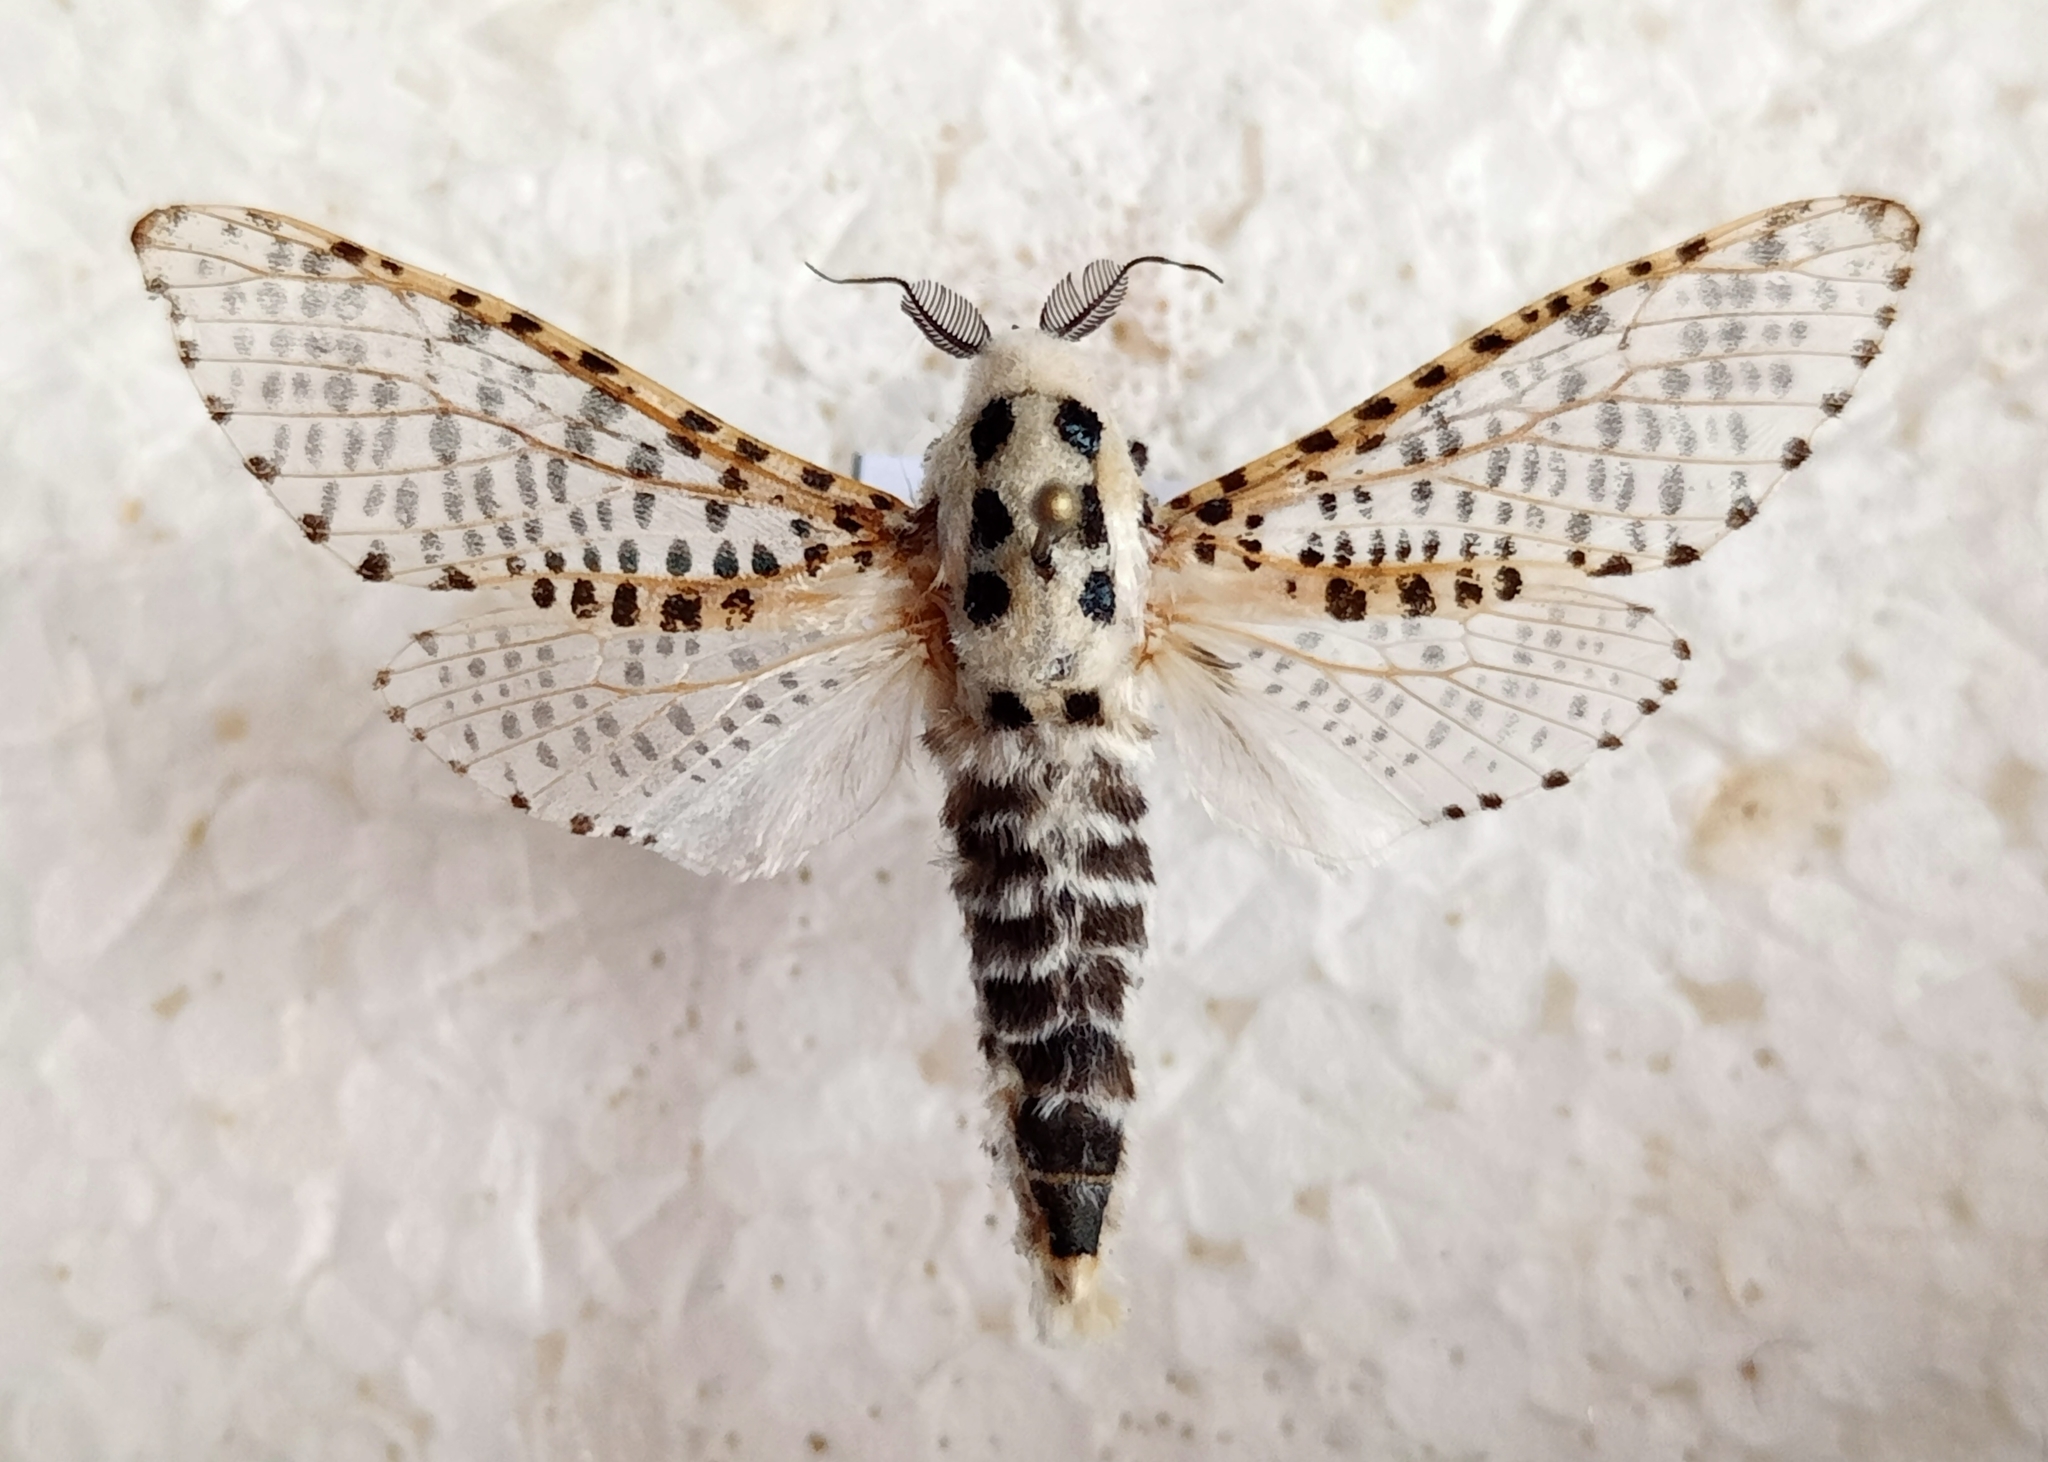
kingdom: Animalia
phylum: Arthropoda
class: Insecta
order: Lepidoptera
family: Cossidae
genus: Zeuzera
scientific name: Zeuzera pyrina
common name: Leopard moth
